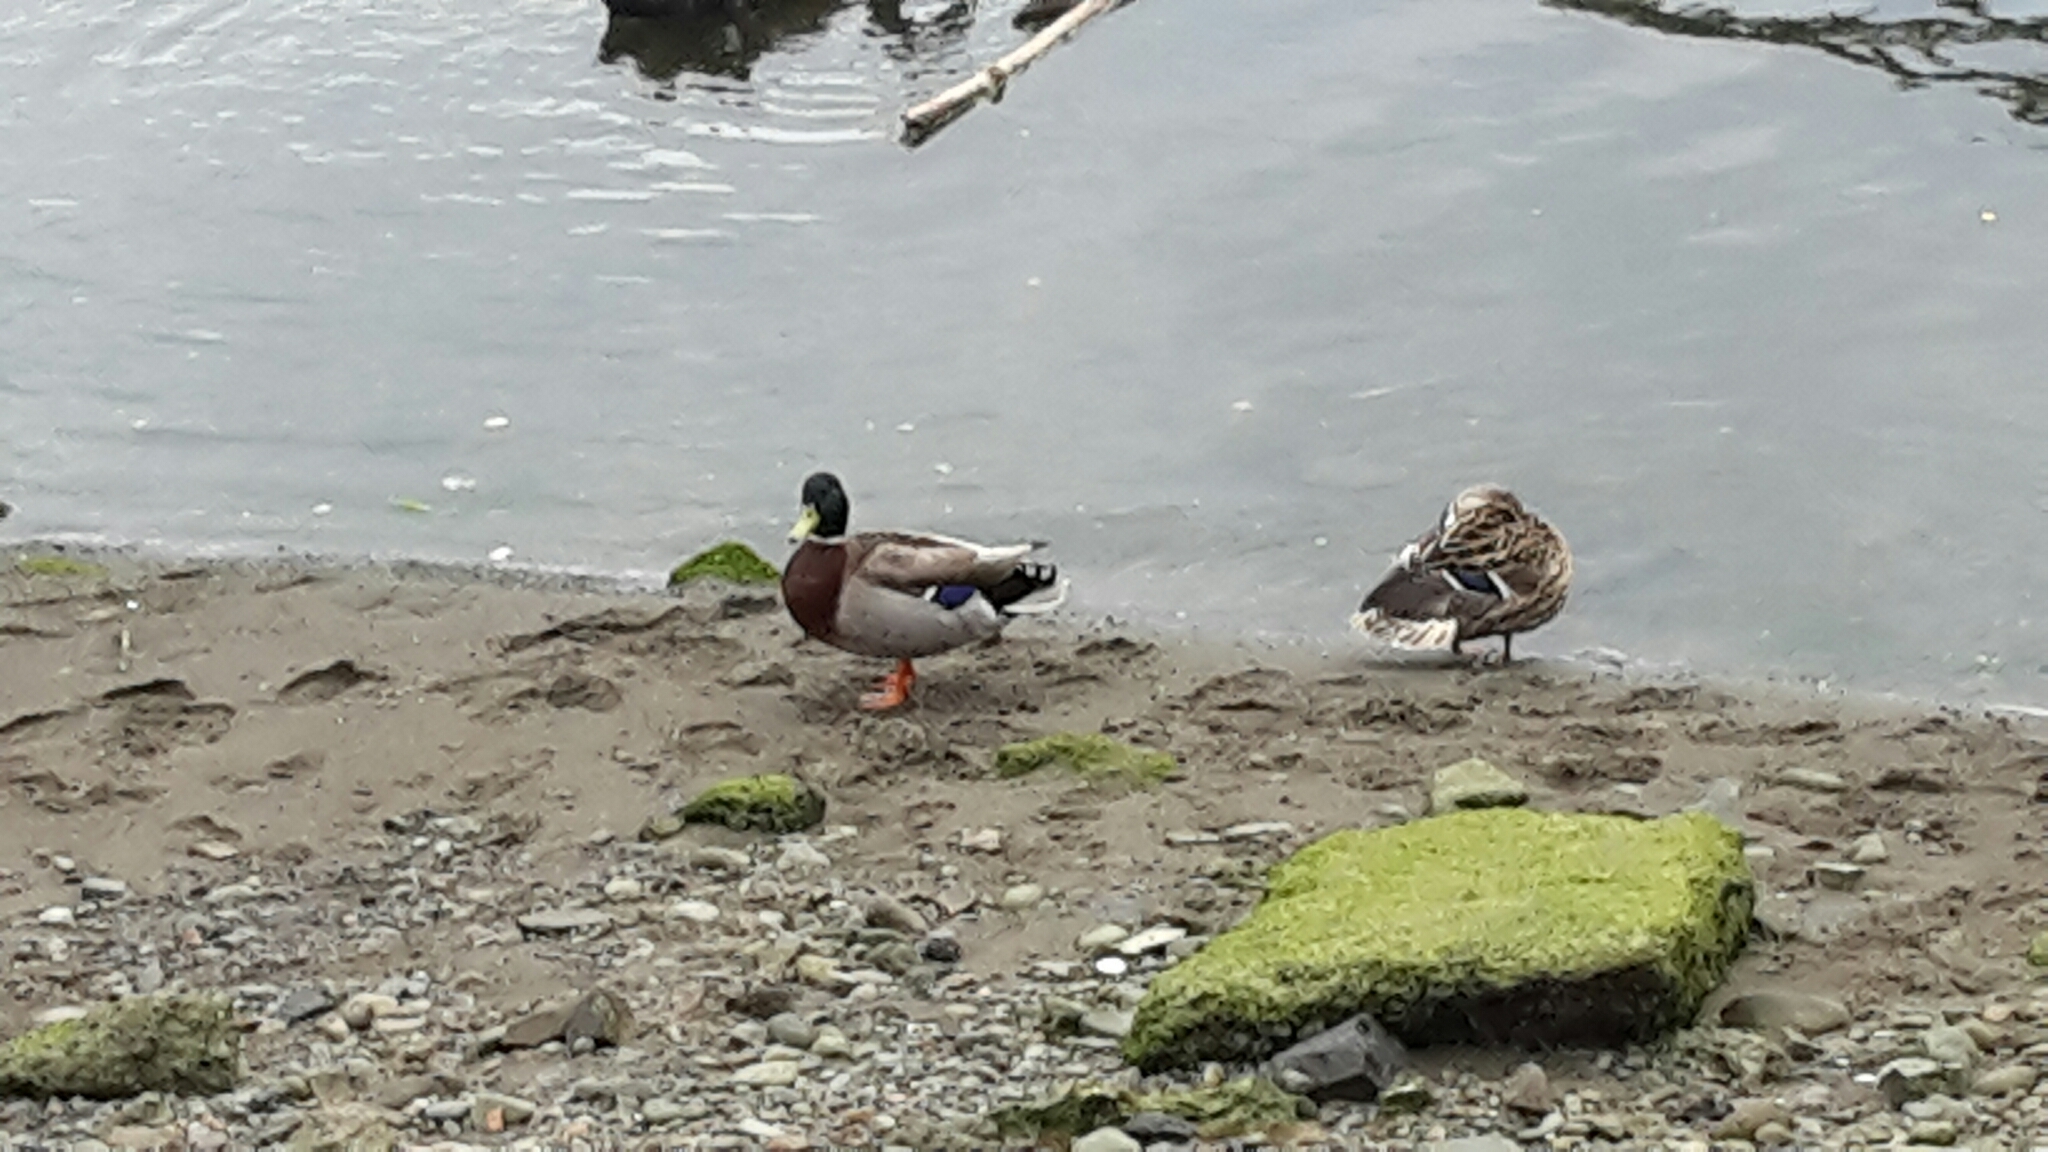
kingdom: Animalia
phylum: Chordata
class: Aves
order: Anseriformes
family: Anatidae
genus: Anas
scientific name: Anas platyrhynchos
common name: Mallard
